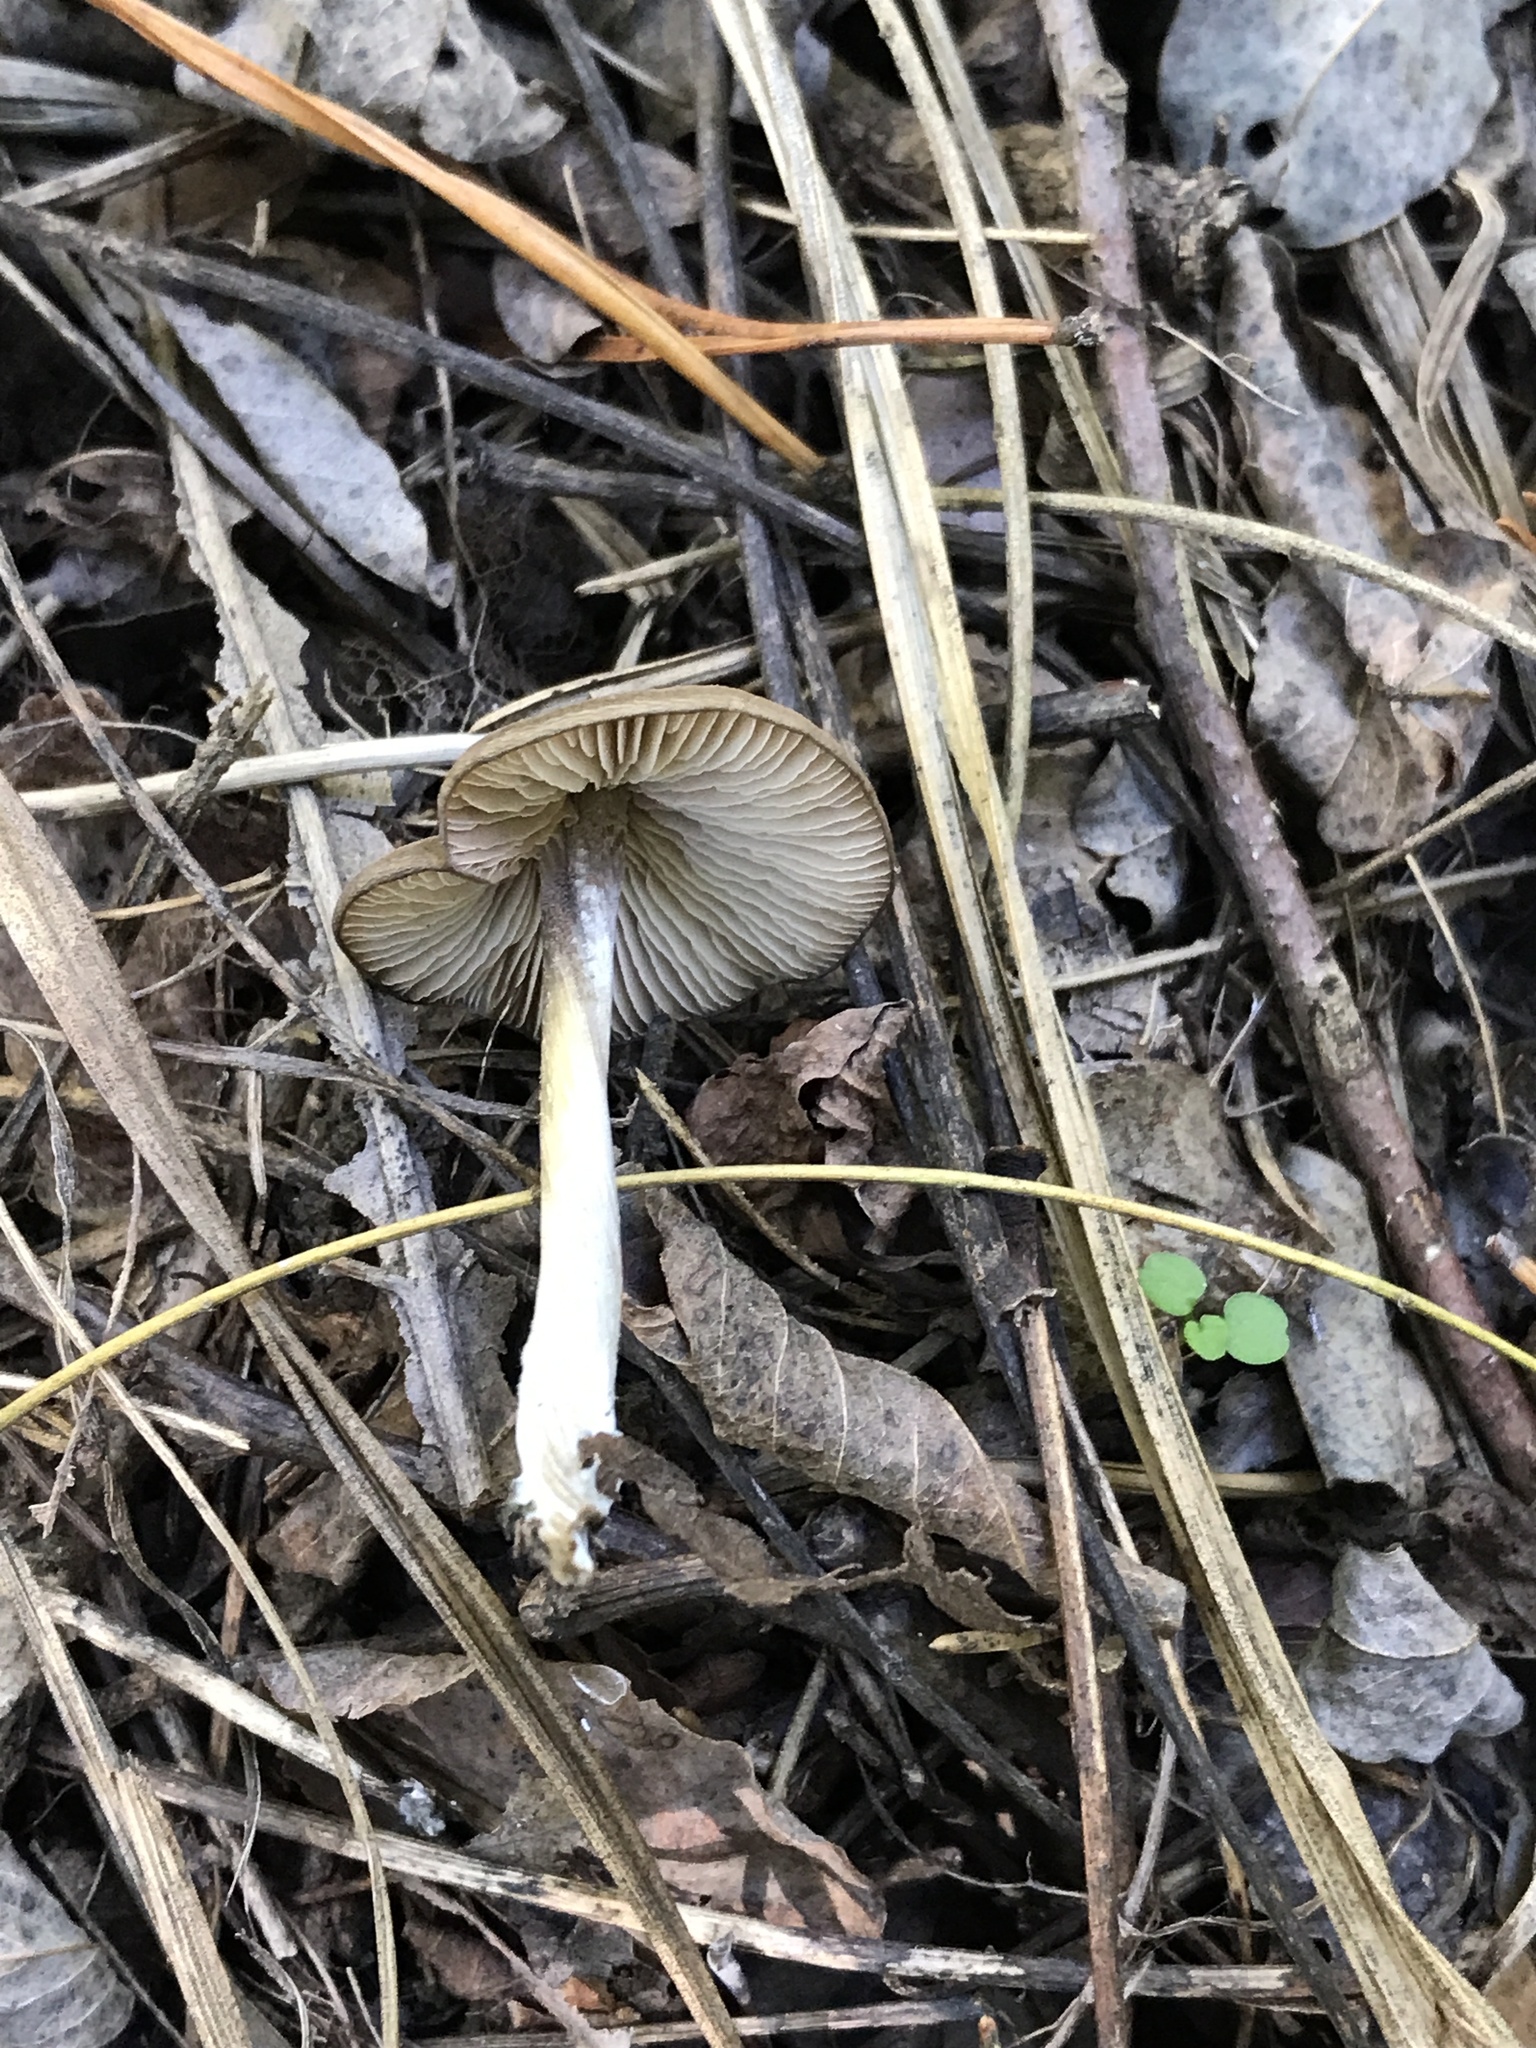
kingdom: Fungi
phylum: Basidiomycota
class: Agaricomycetes
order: Agaricales
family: Entolomataceae
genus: Entoloma
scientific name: Entoloma psammophilohebes
